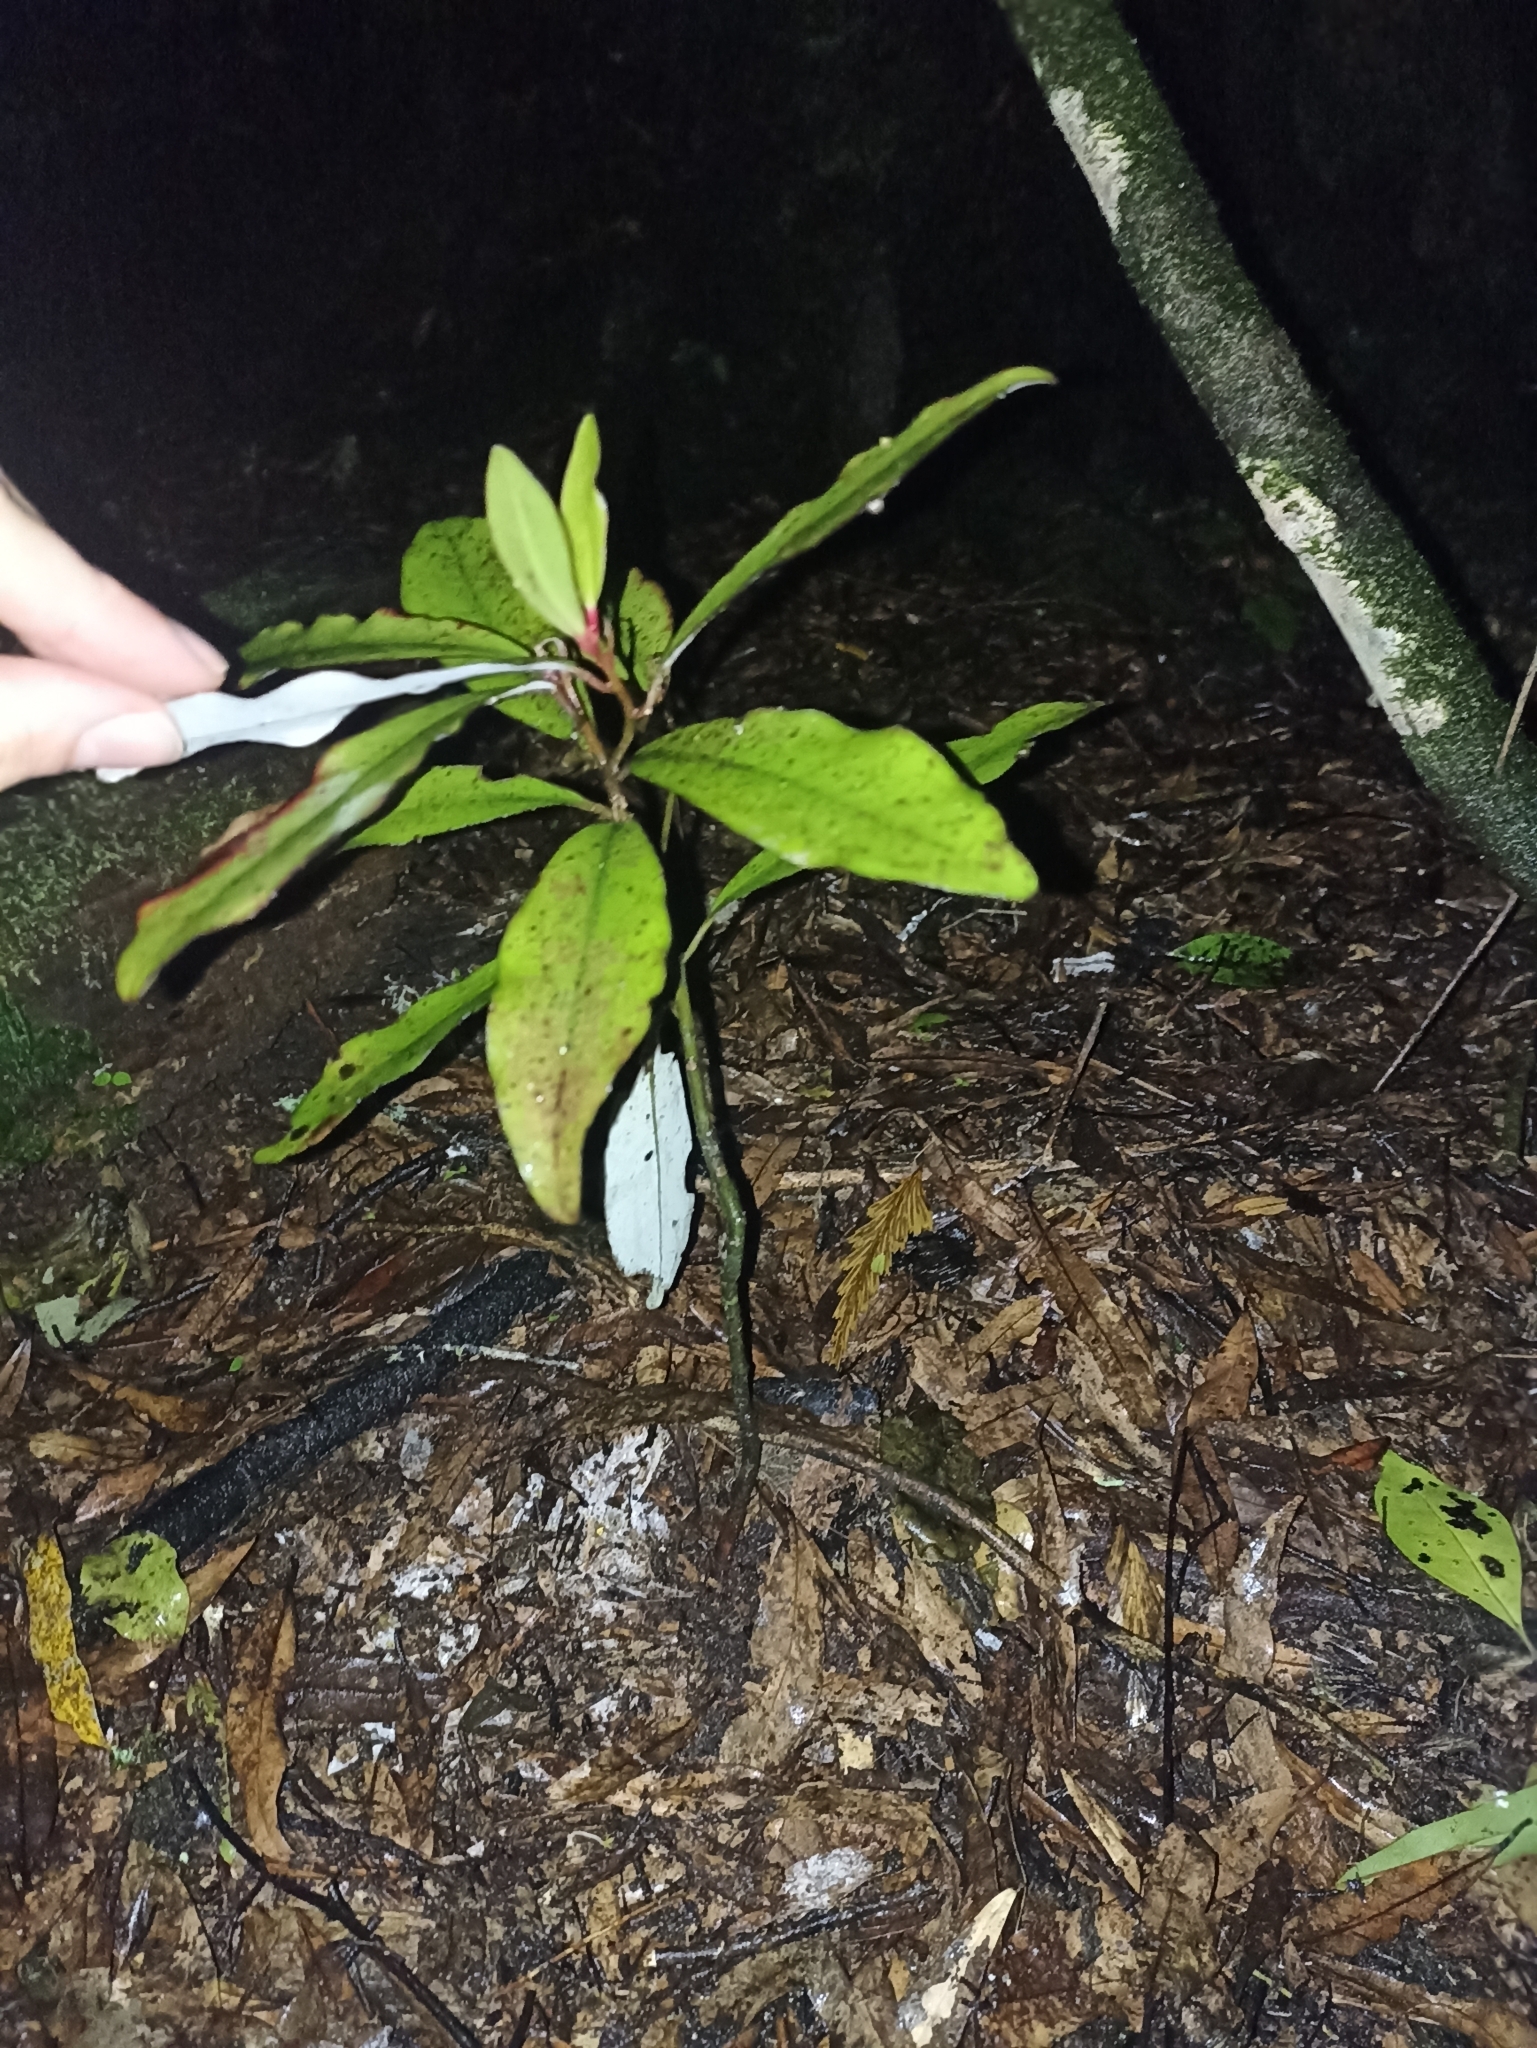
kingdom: Plantae
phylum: Tracheophyta
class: Magnoliopsida
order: Canellales
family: Winteraceae
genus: Pseudowintera
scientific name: Pseudowintera colorata
